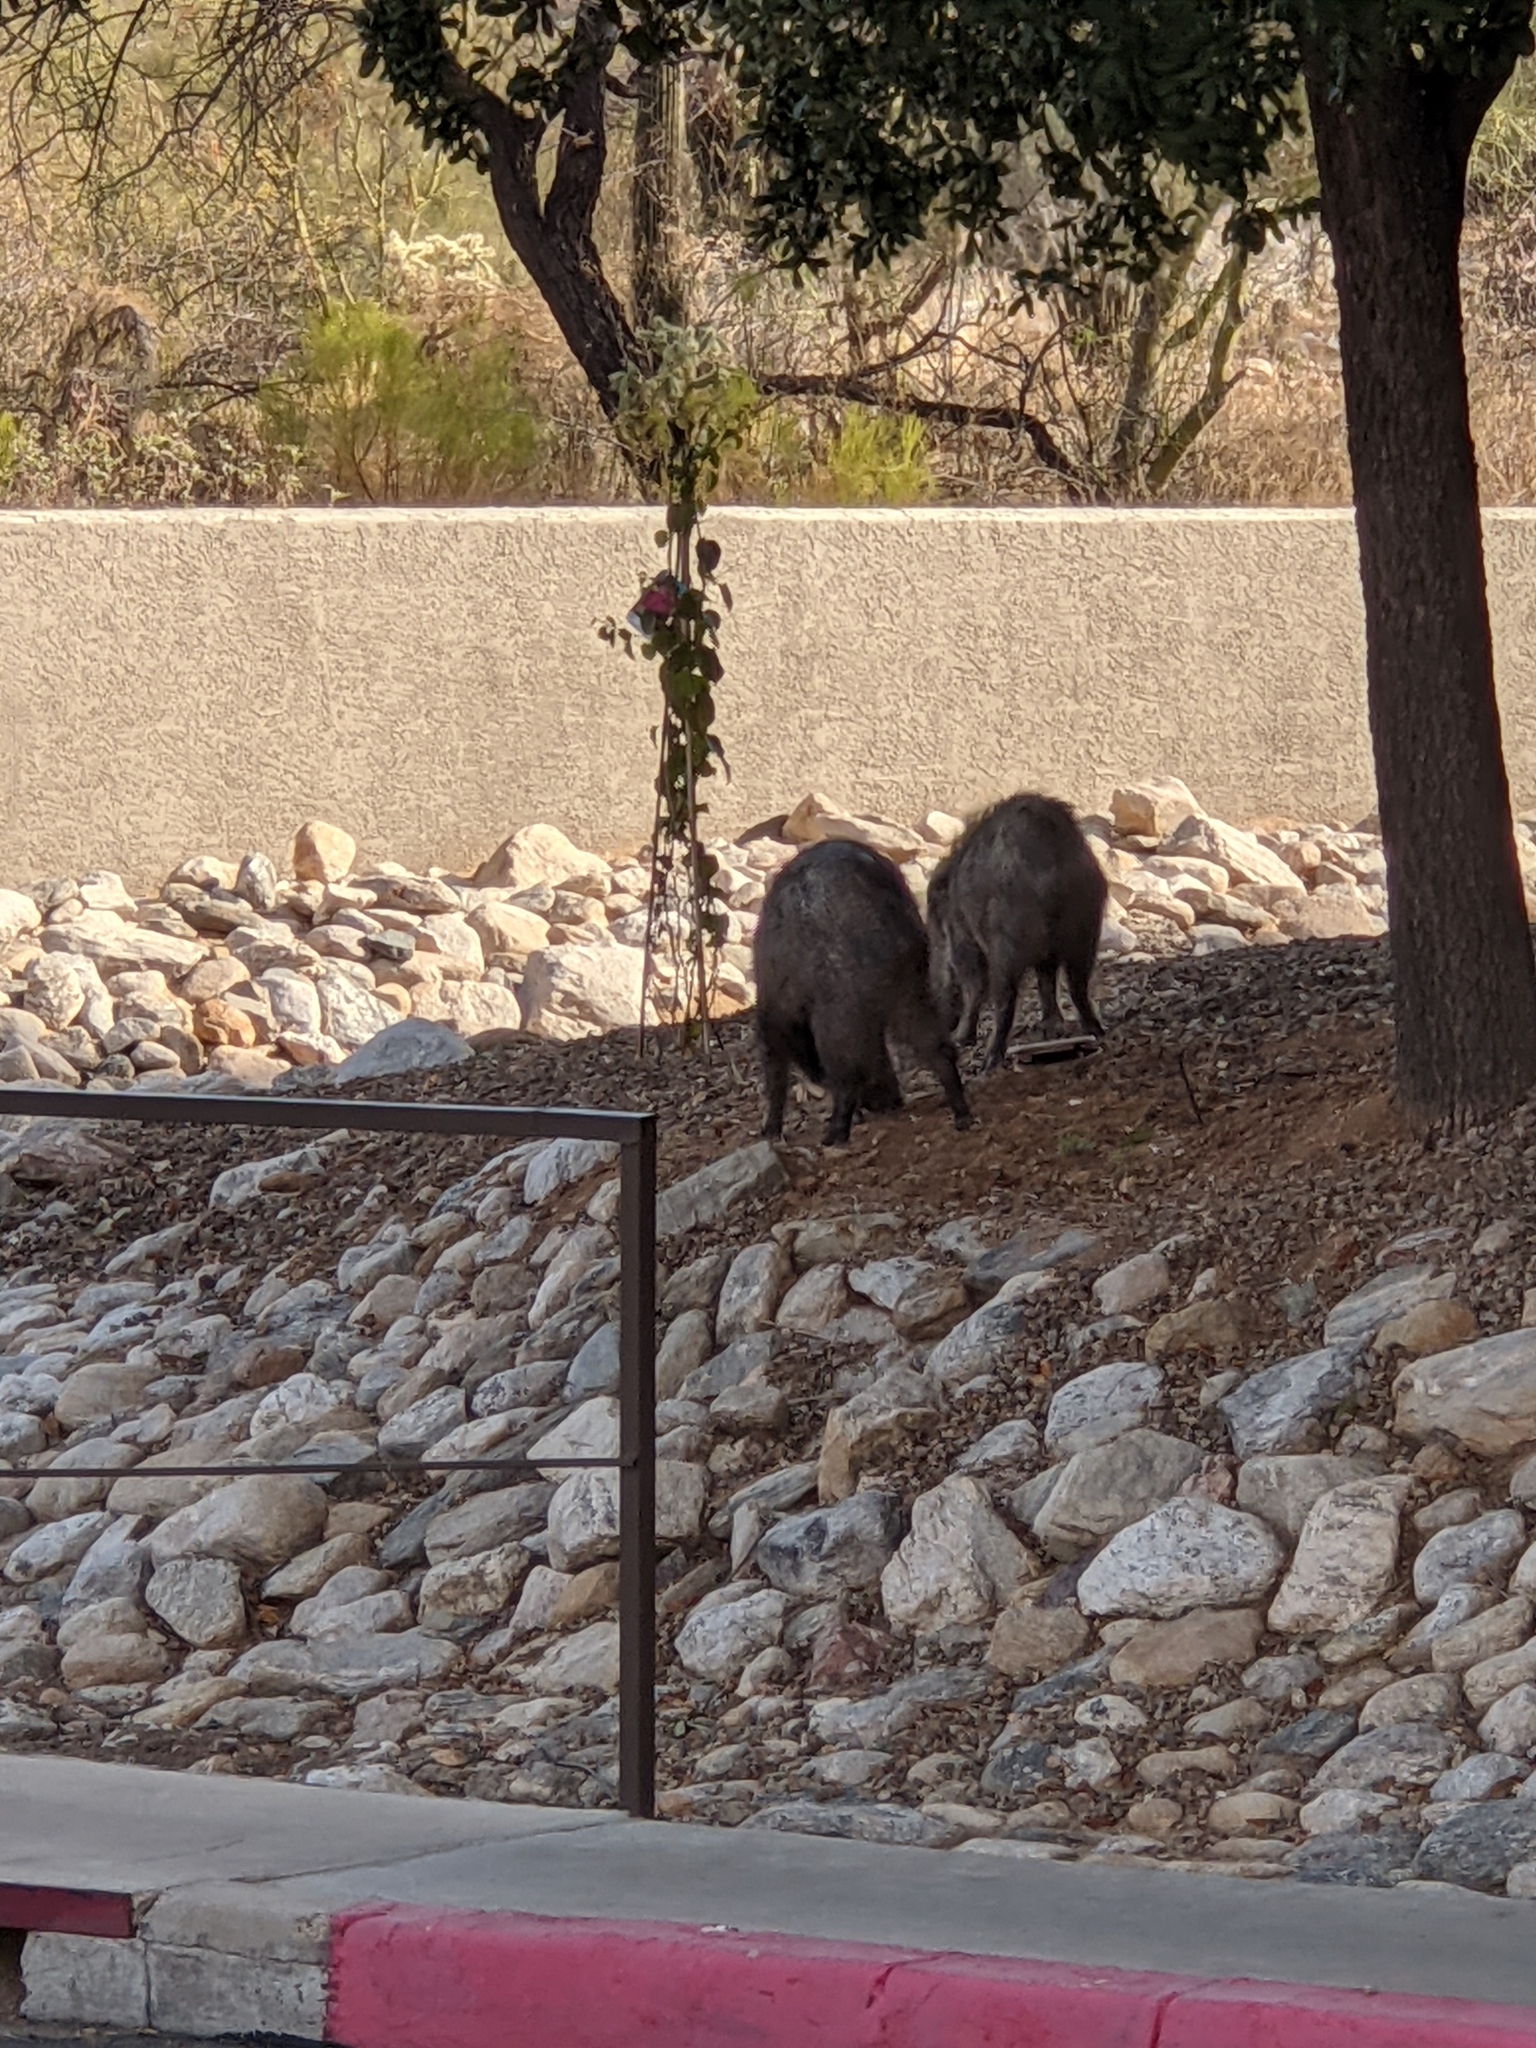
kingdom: Animalia
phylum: Chordata
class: Mammalia
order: Artiodactyla
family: Tayassuidae
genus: Pecari
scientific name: Pecari tajacu
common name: Collared peccary
